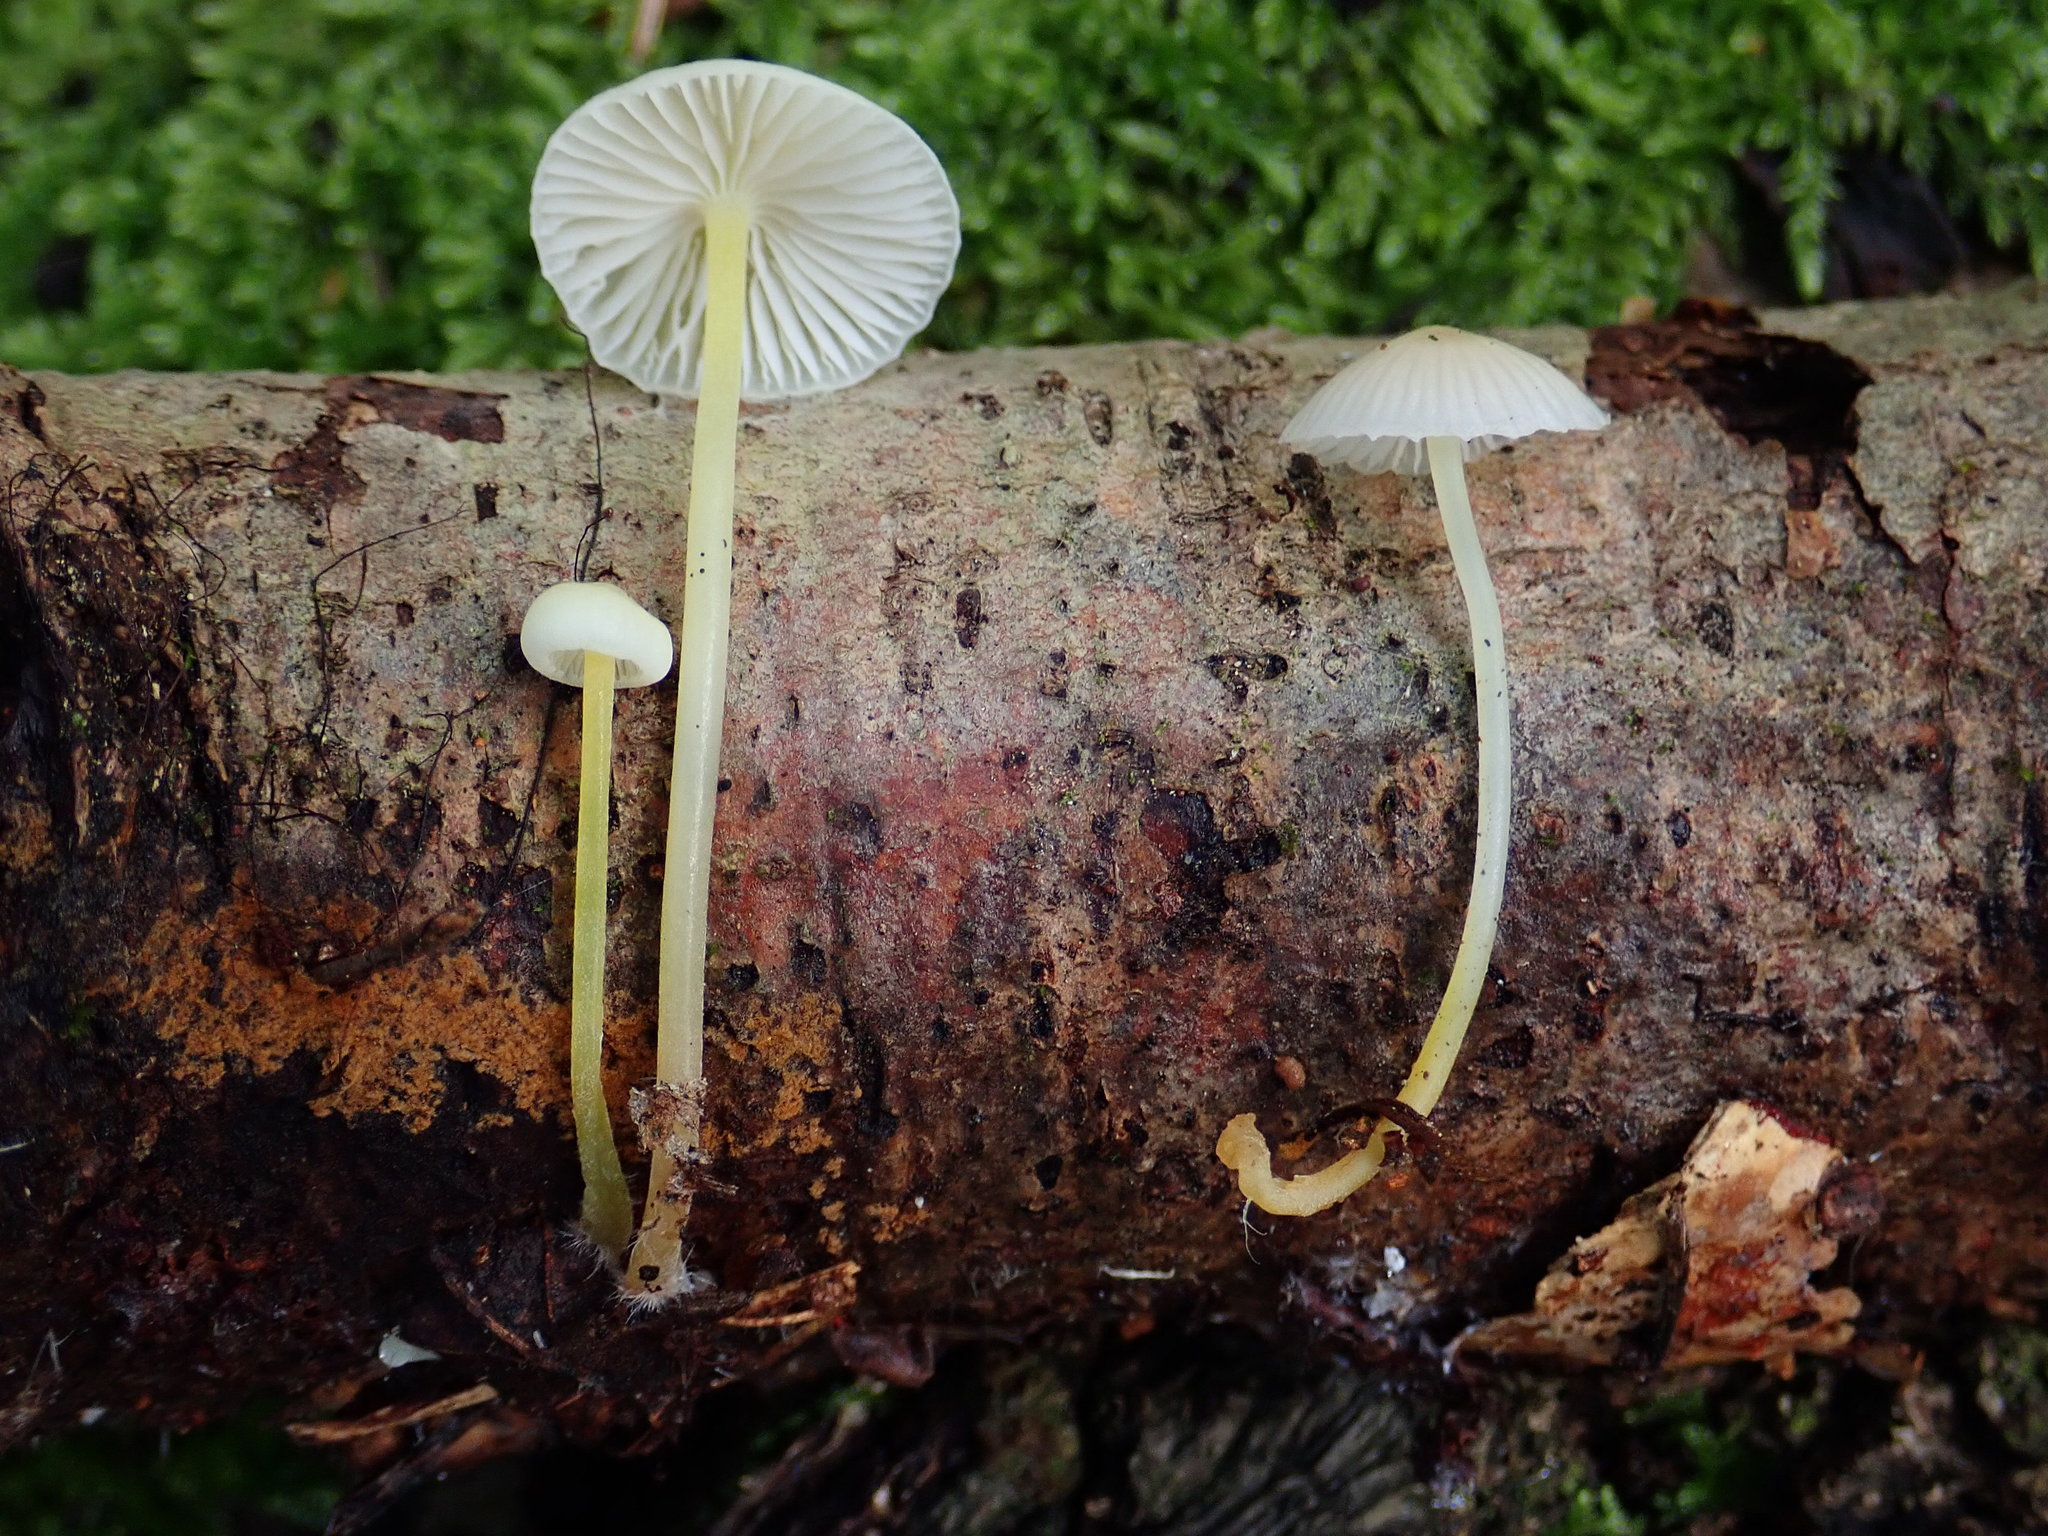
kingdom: Fungi
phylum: Basidiomycota
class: Agaricomycetes
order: Agaricales
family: Mycenaceae
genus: Mycena
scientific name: Mycena epipterygia
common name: Yellowleg bonnet
